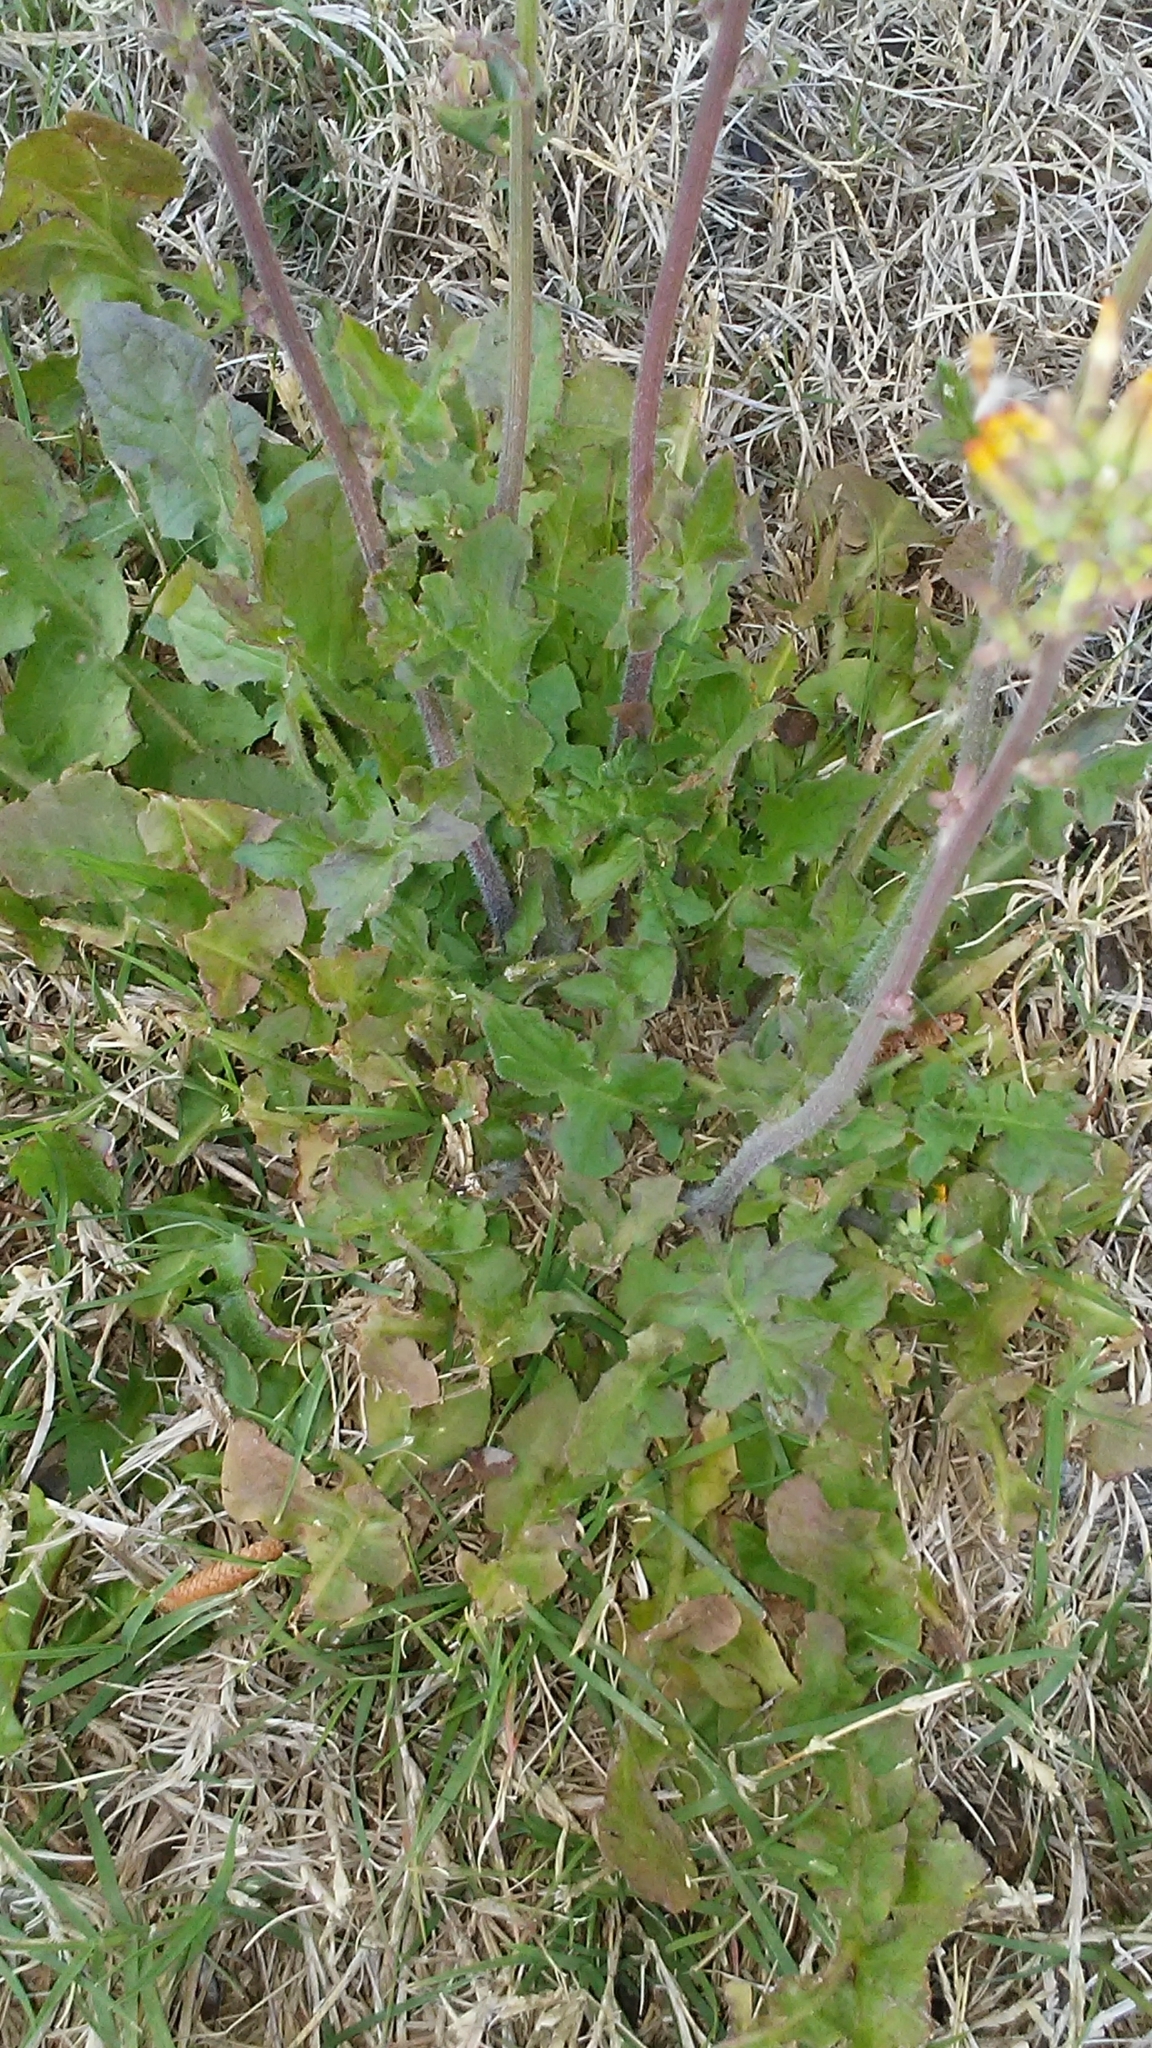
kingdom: Plantae
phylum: Tracheophyta
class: Magnoliopsida
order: Asterales
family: Asteraceae
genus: Youngia
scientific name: Youngia japonica
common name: Oriental false hawksbeard
